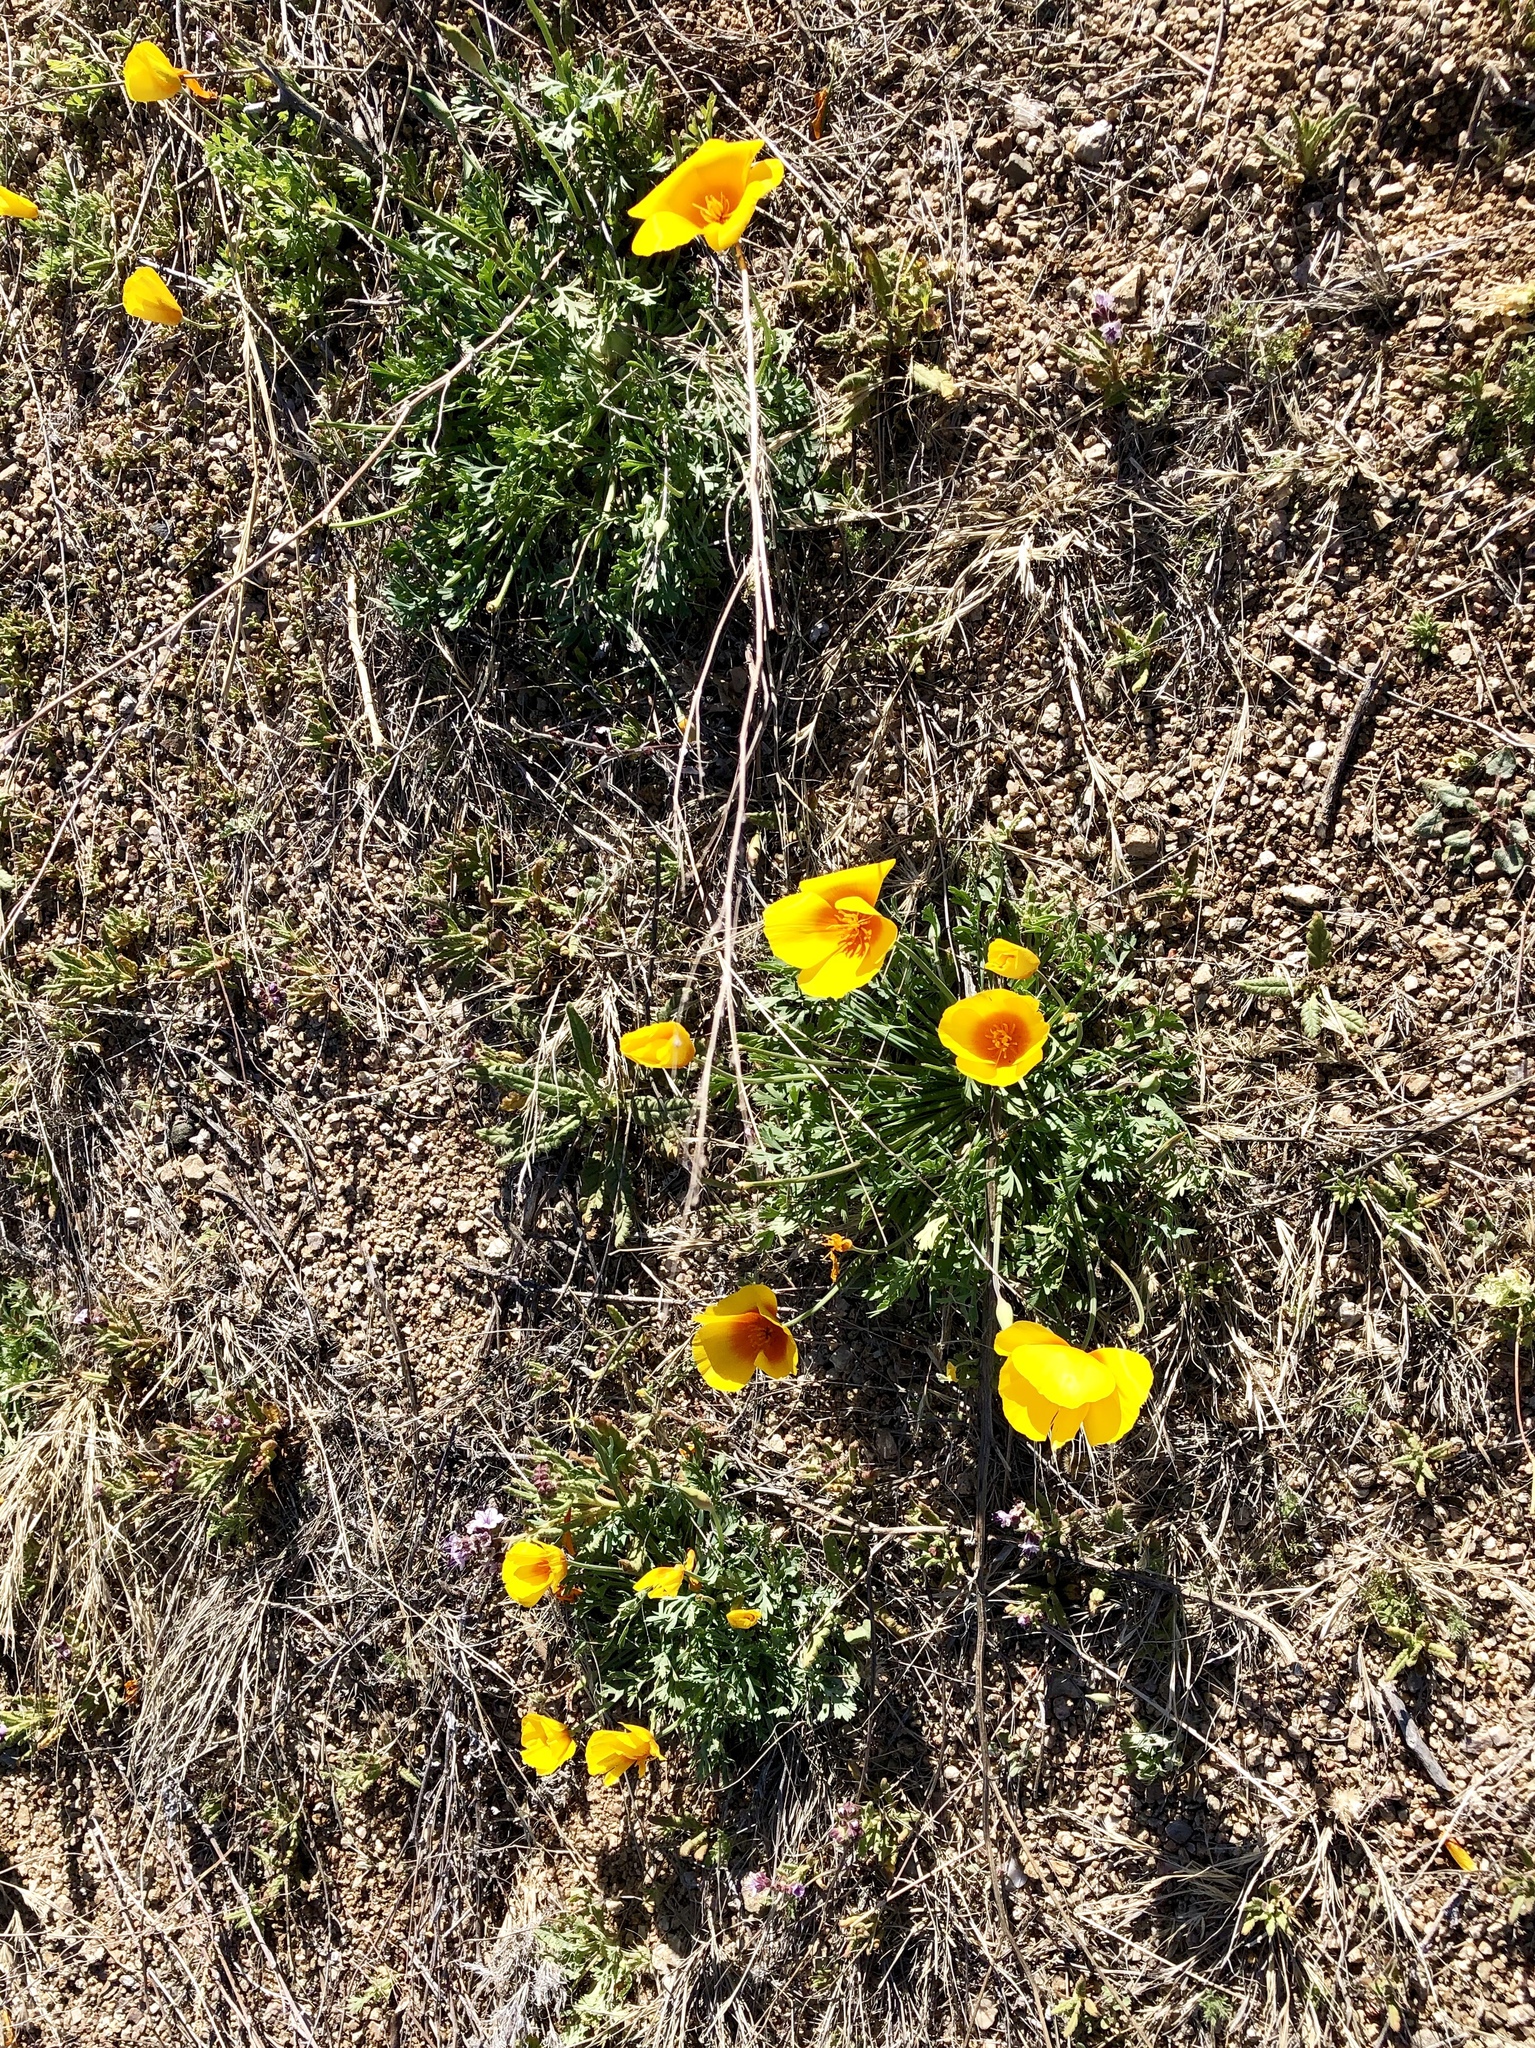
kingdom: Plantae
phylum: Tracheophyta
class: Magnoliopsida
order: Ranunculales
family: Papaveraceae
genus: Eschscholzia
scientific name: Eschscholzia californica
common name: California poppy
